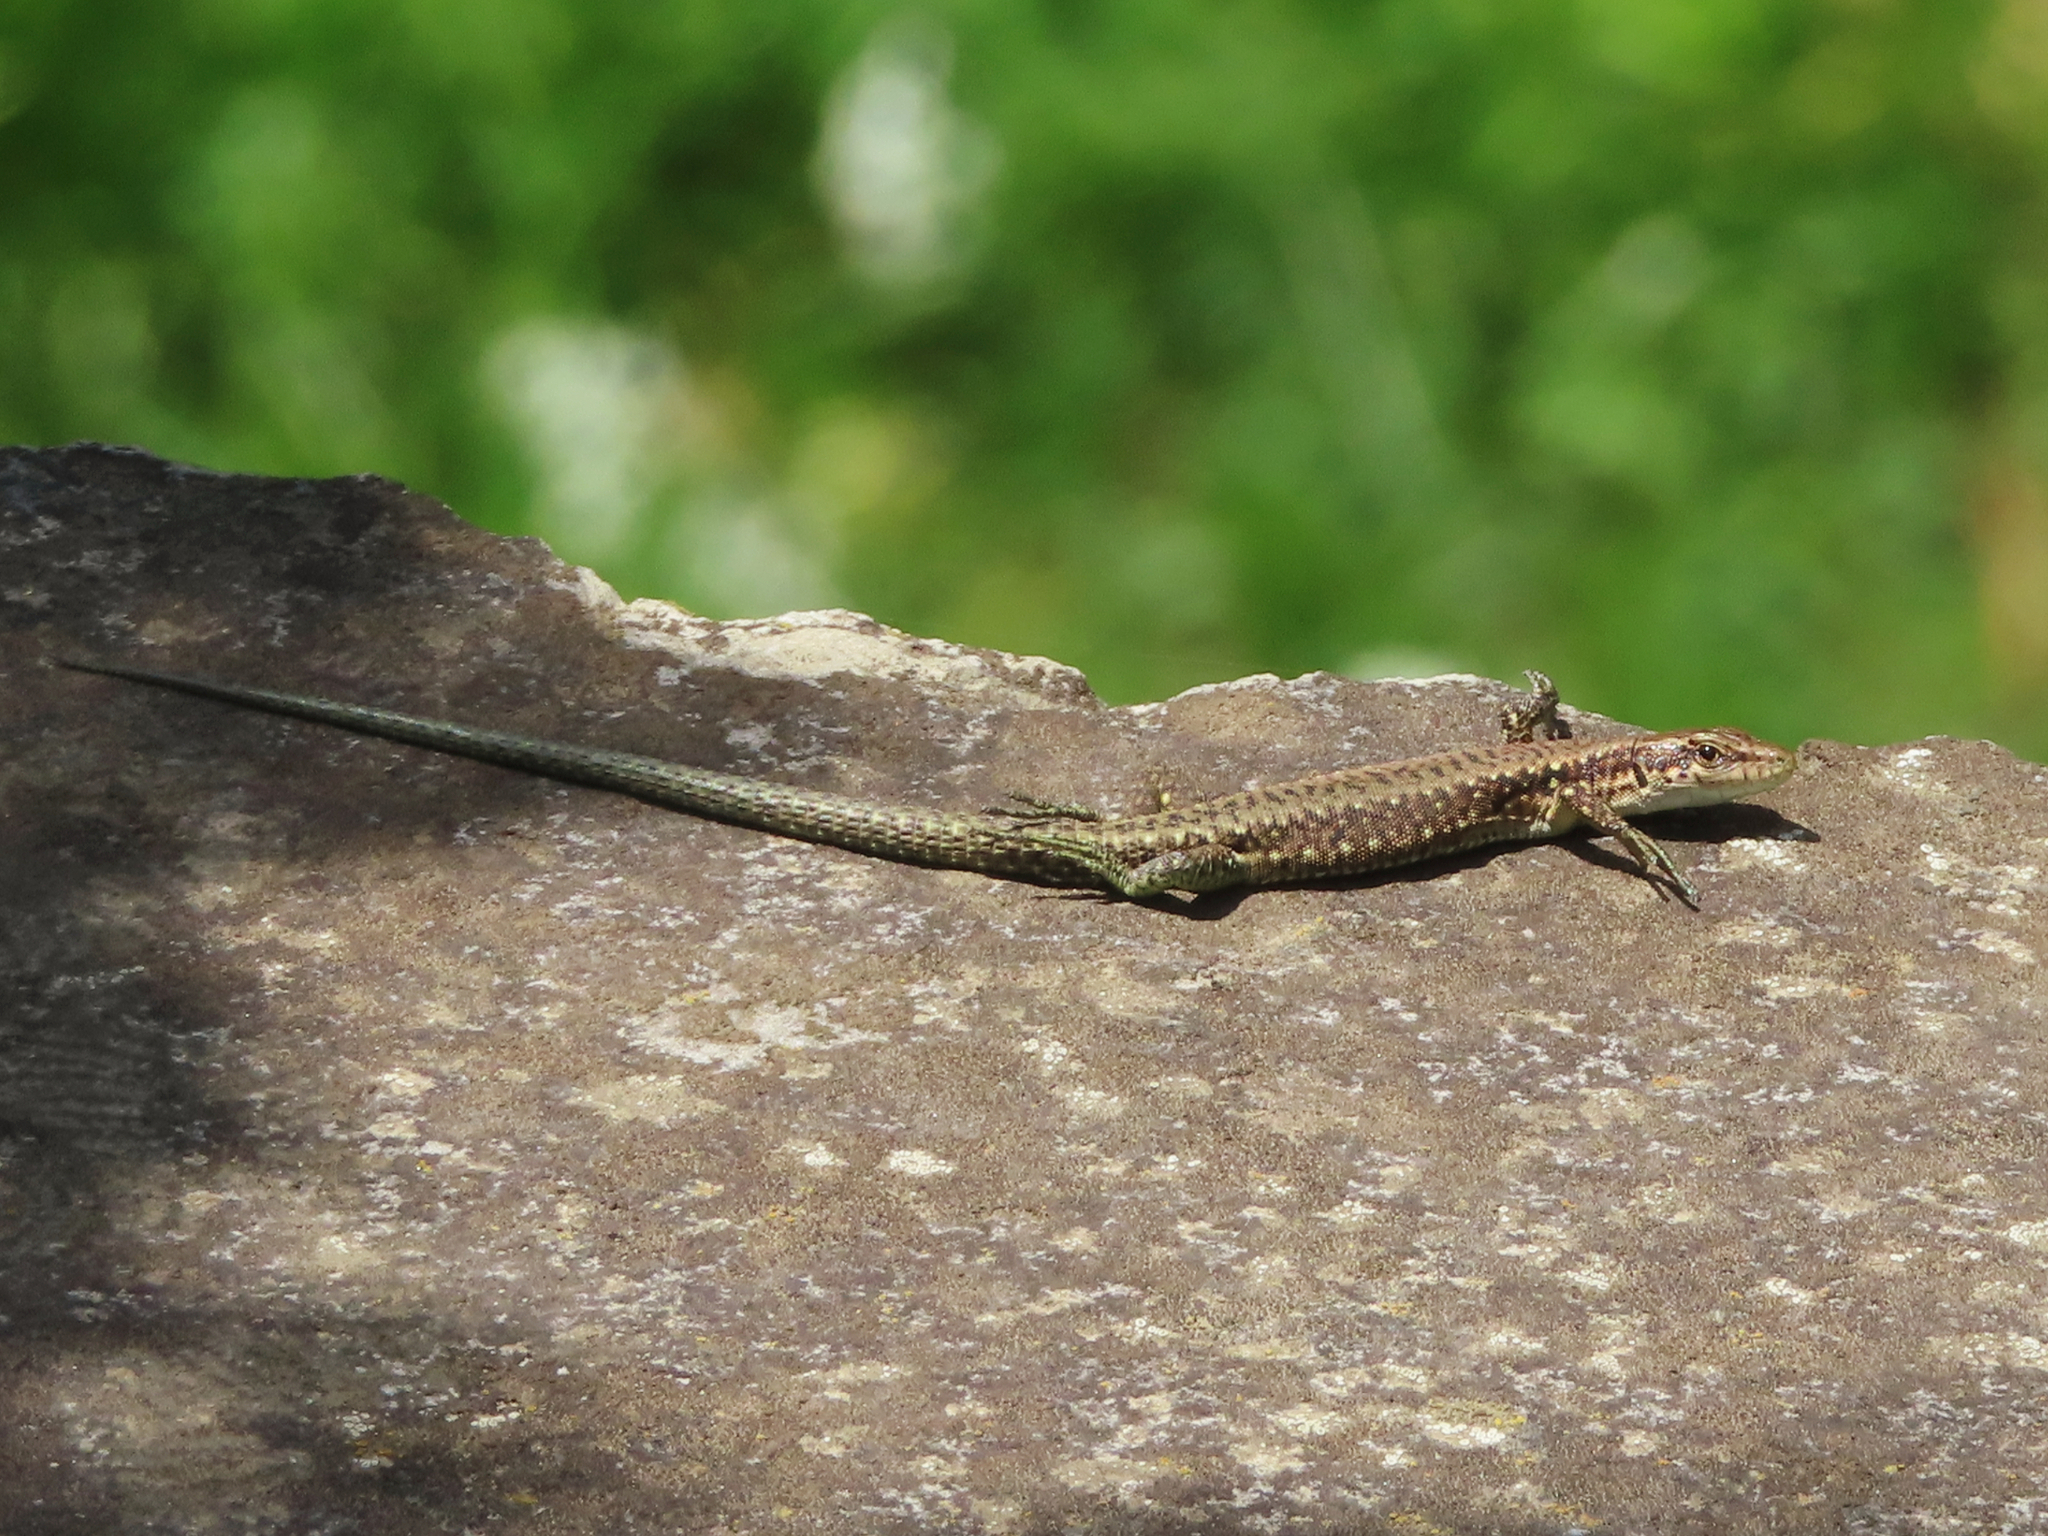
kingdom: Animalia
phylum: Chordata
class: Squamata
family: Lacertidae
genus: Darevskia
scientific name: Darevskia armeniaca
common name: Armenian lizard
